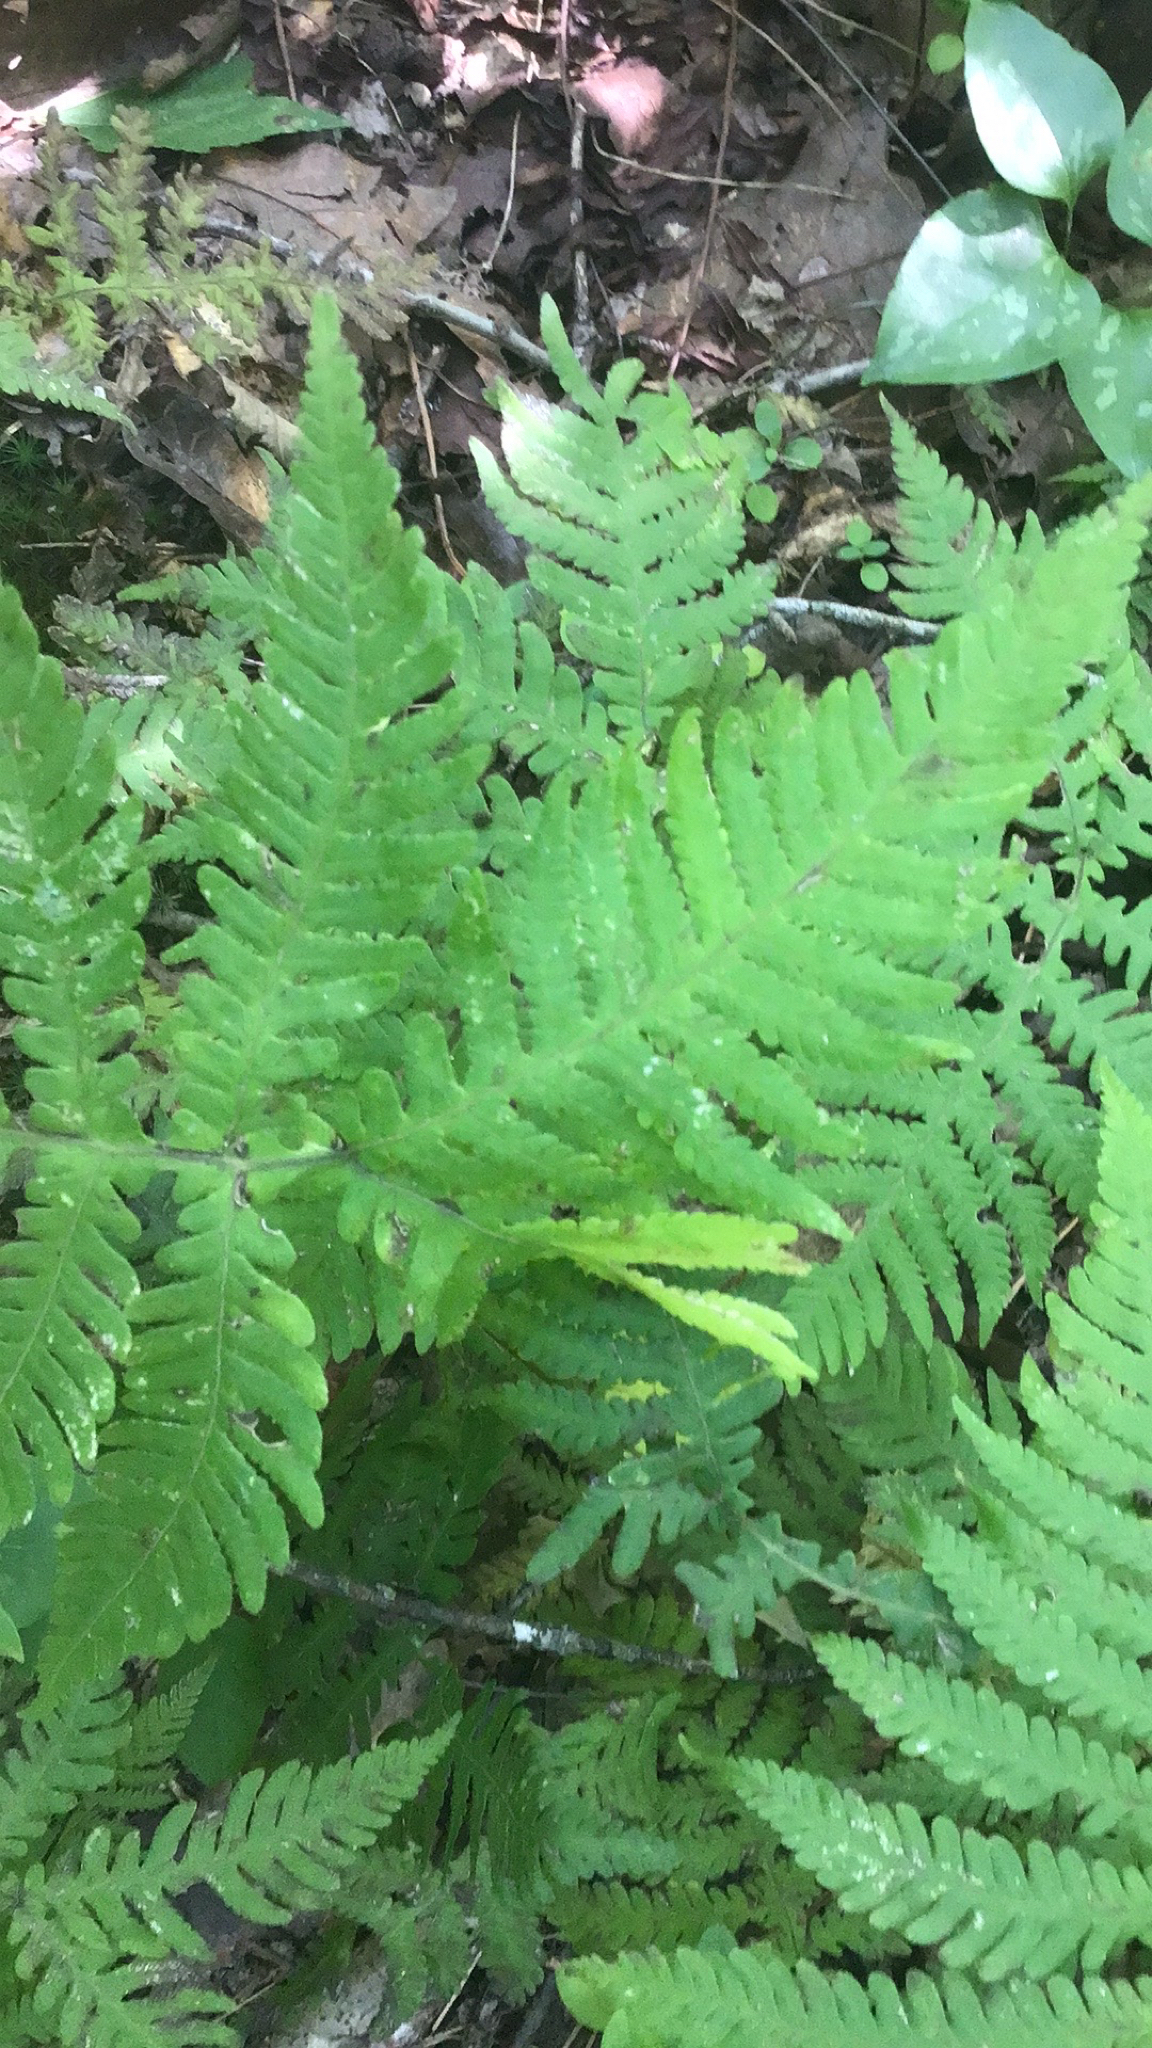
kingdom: Plantae
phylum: Tracheophyta
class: Polypodiopsida
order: Polypodiales
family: Thelypteridaceae
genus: Phegopteris
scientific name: Phegopteris hexagonoptera
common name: Broad beech fern
